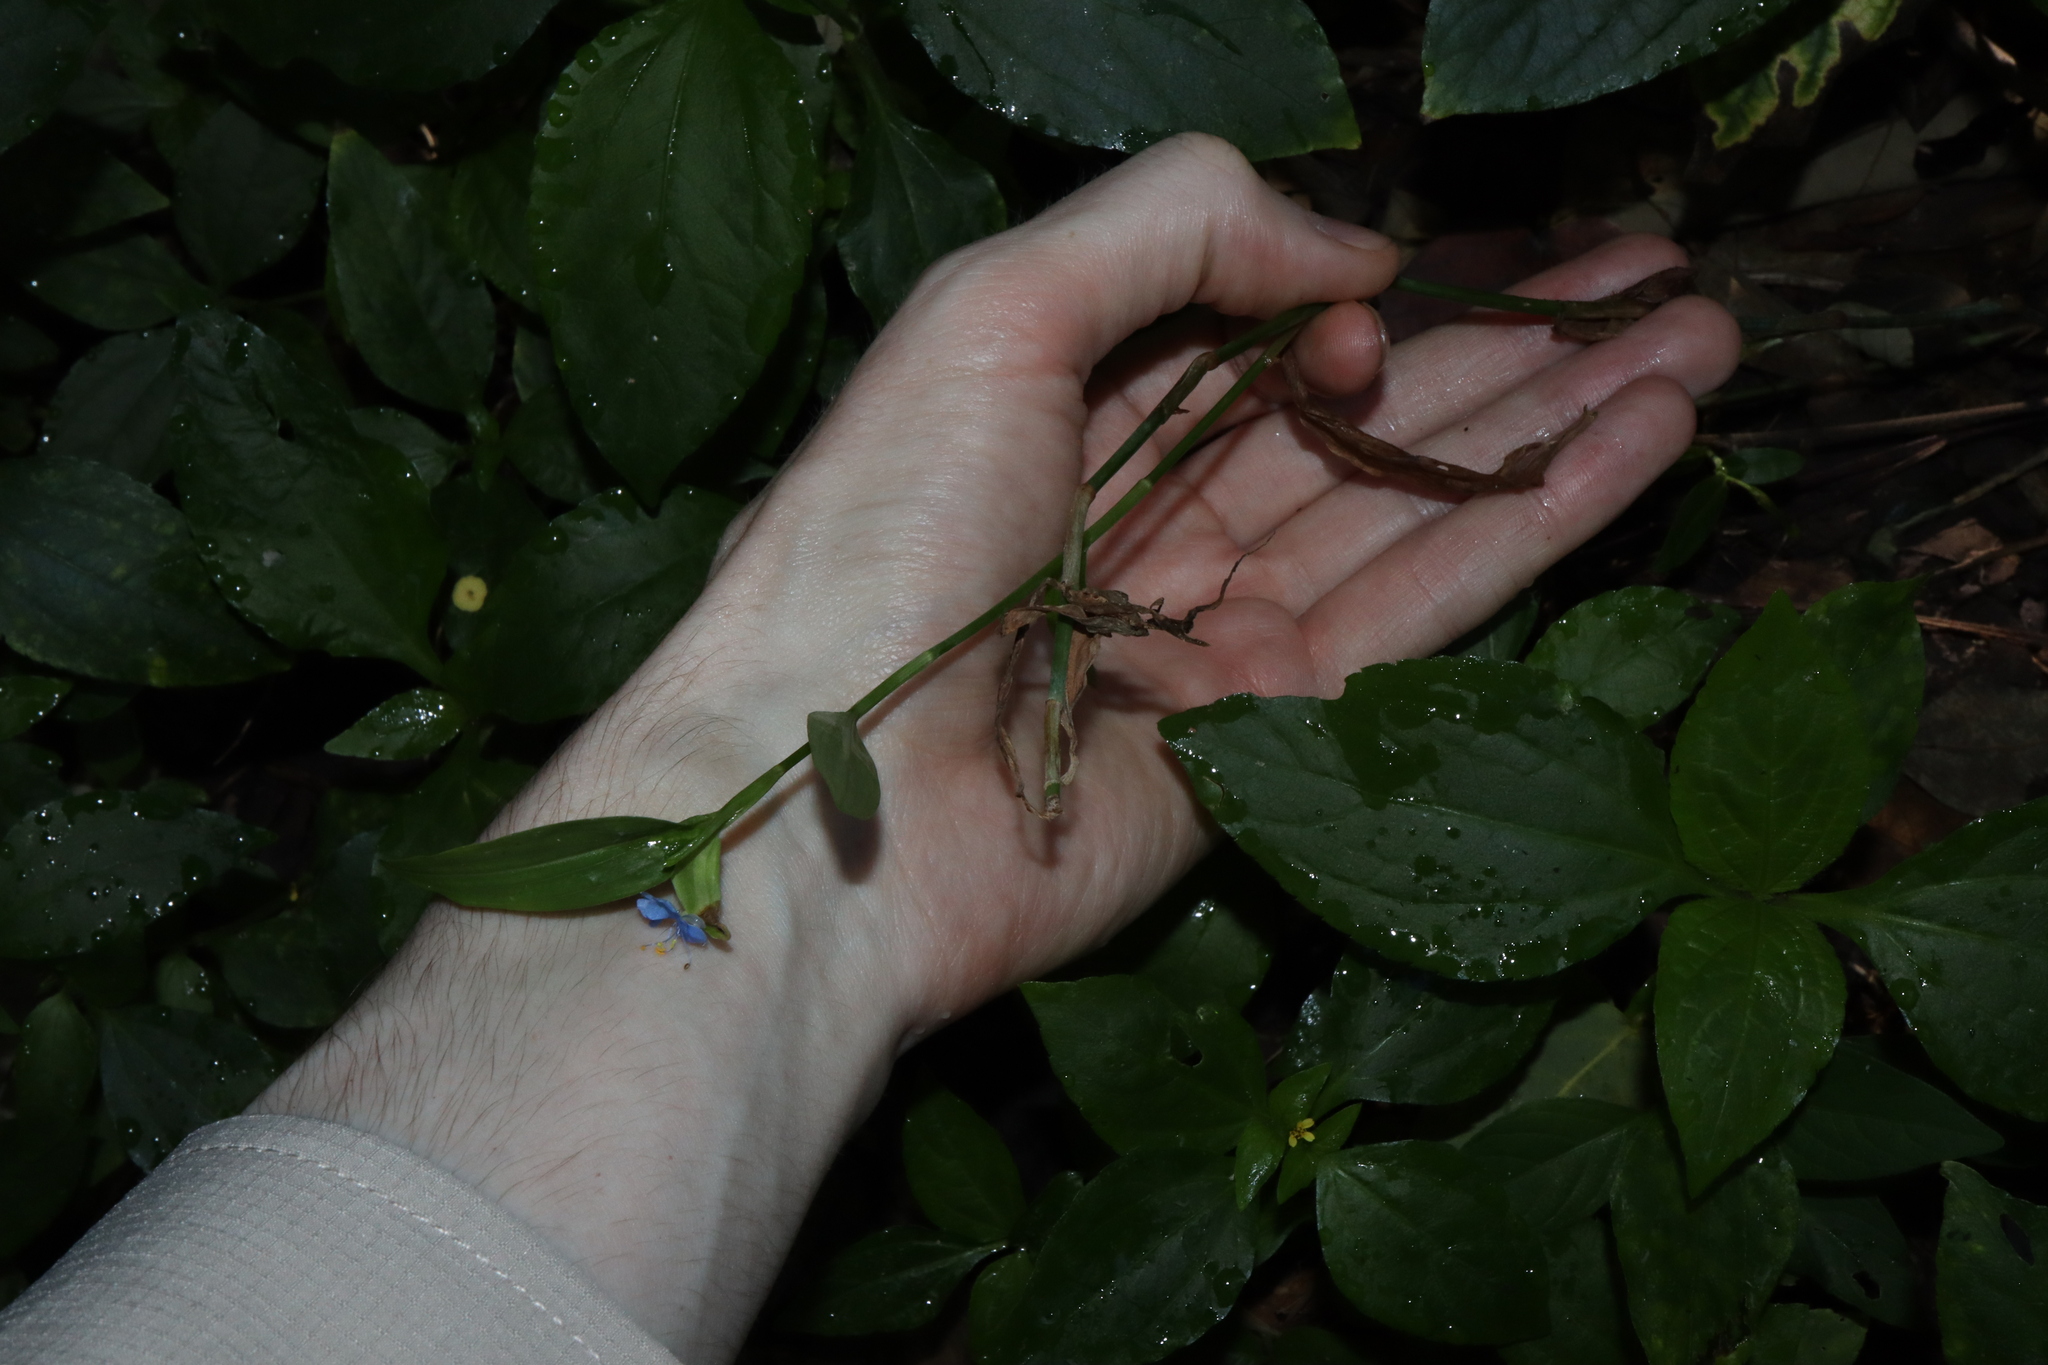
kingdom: Plantae
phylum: Tracheophyta
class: Liliopsida
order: Commelinales
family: Commelinaceae
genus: Commelina
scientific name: Commelina diffusa
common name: Climbing dayflower
